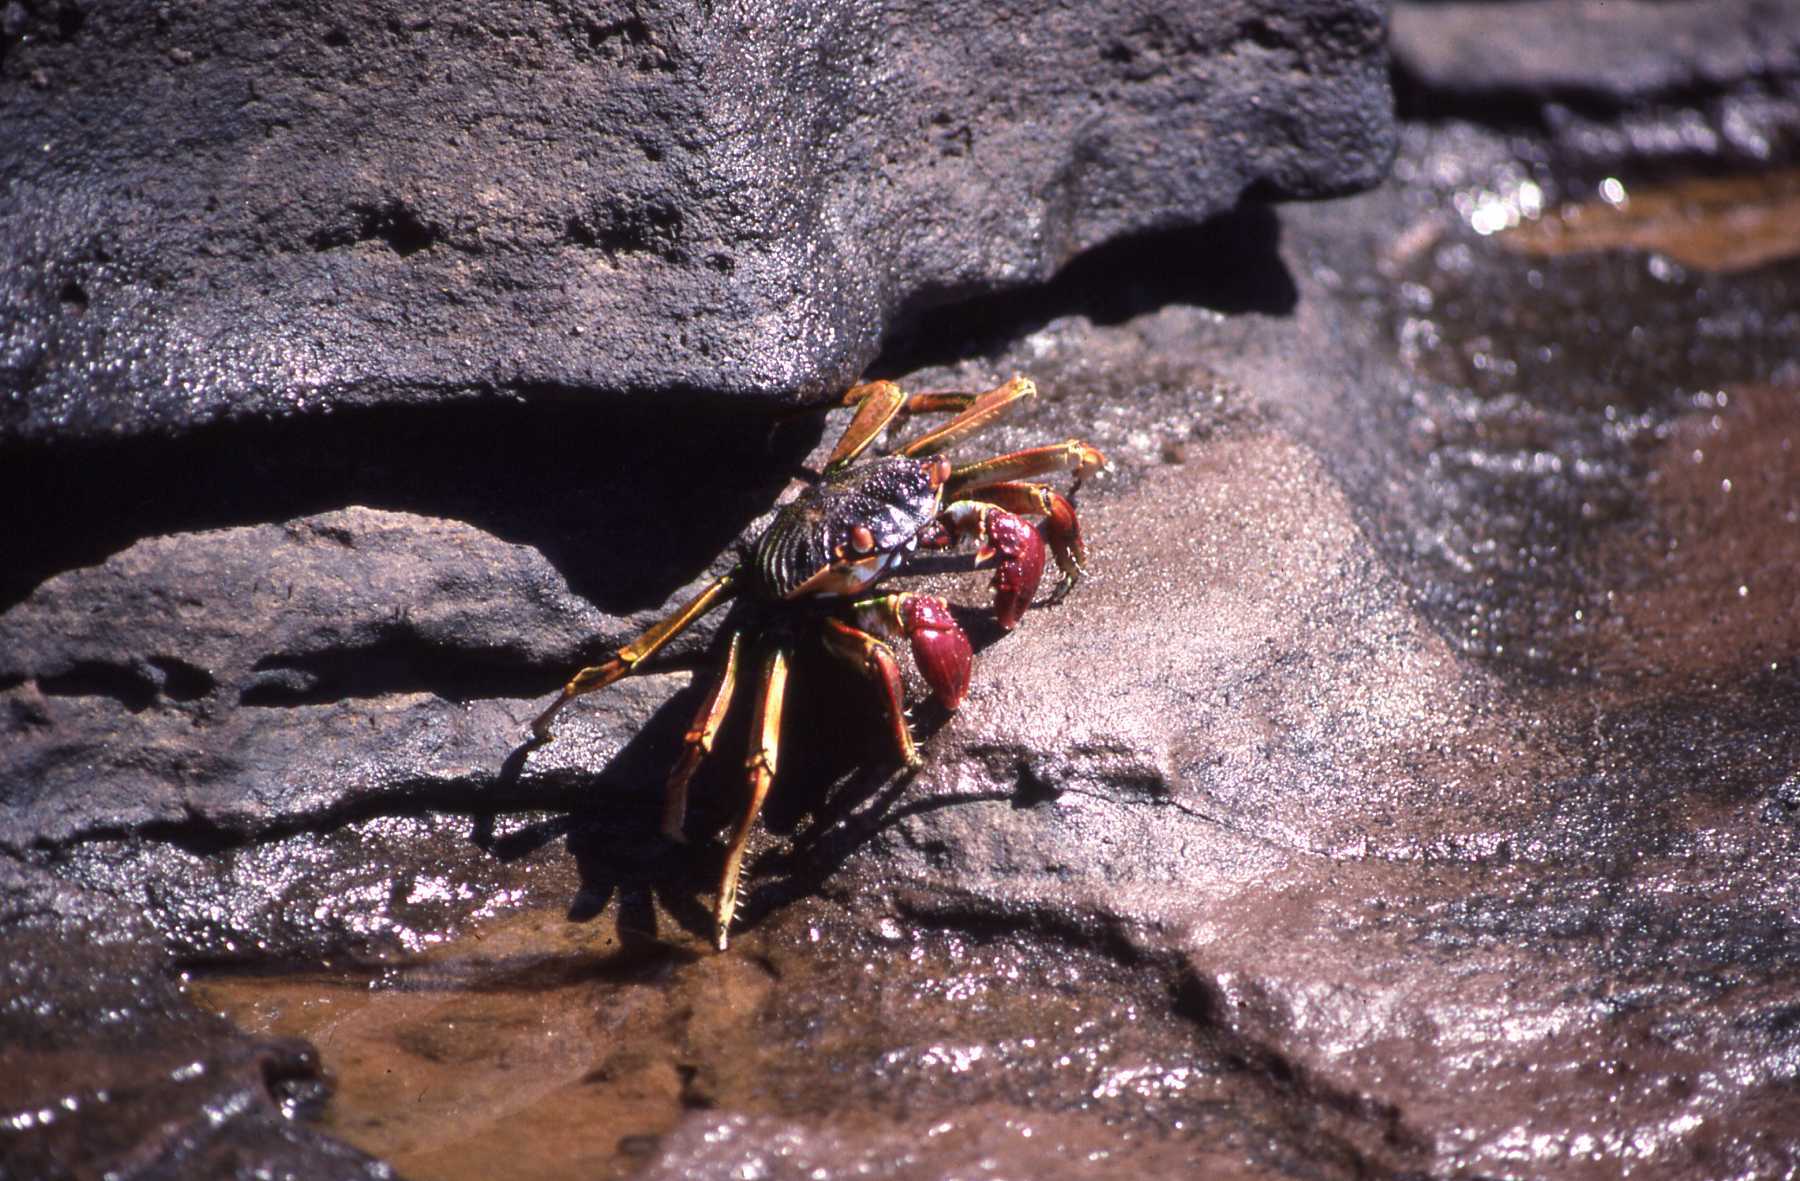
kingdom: Animalia
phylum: Arthropoda
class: Malacostraca
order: Decapoda
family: Grapsidae
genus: Grapsus
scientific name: Grapsus tenuicrustatus
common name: Natal lightfoot crab
